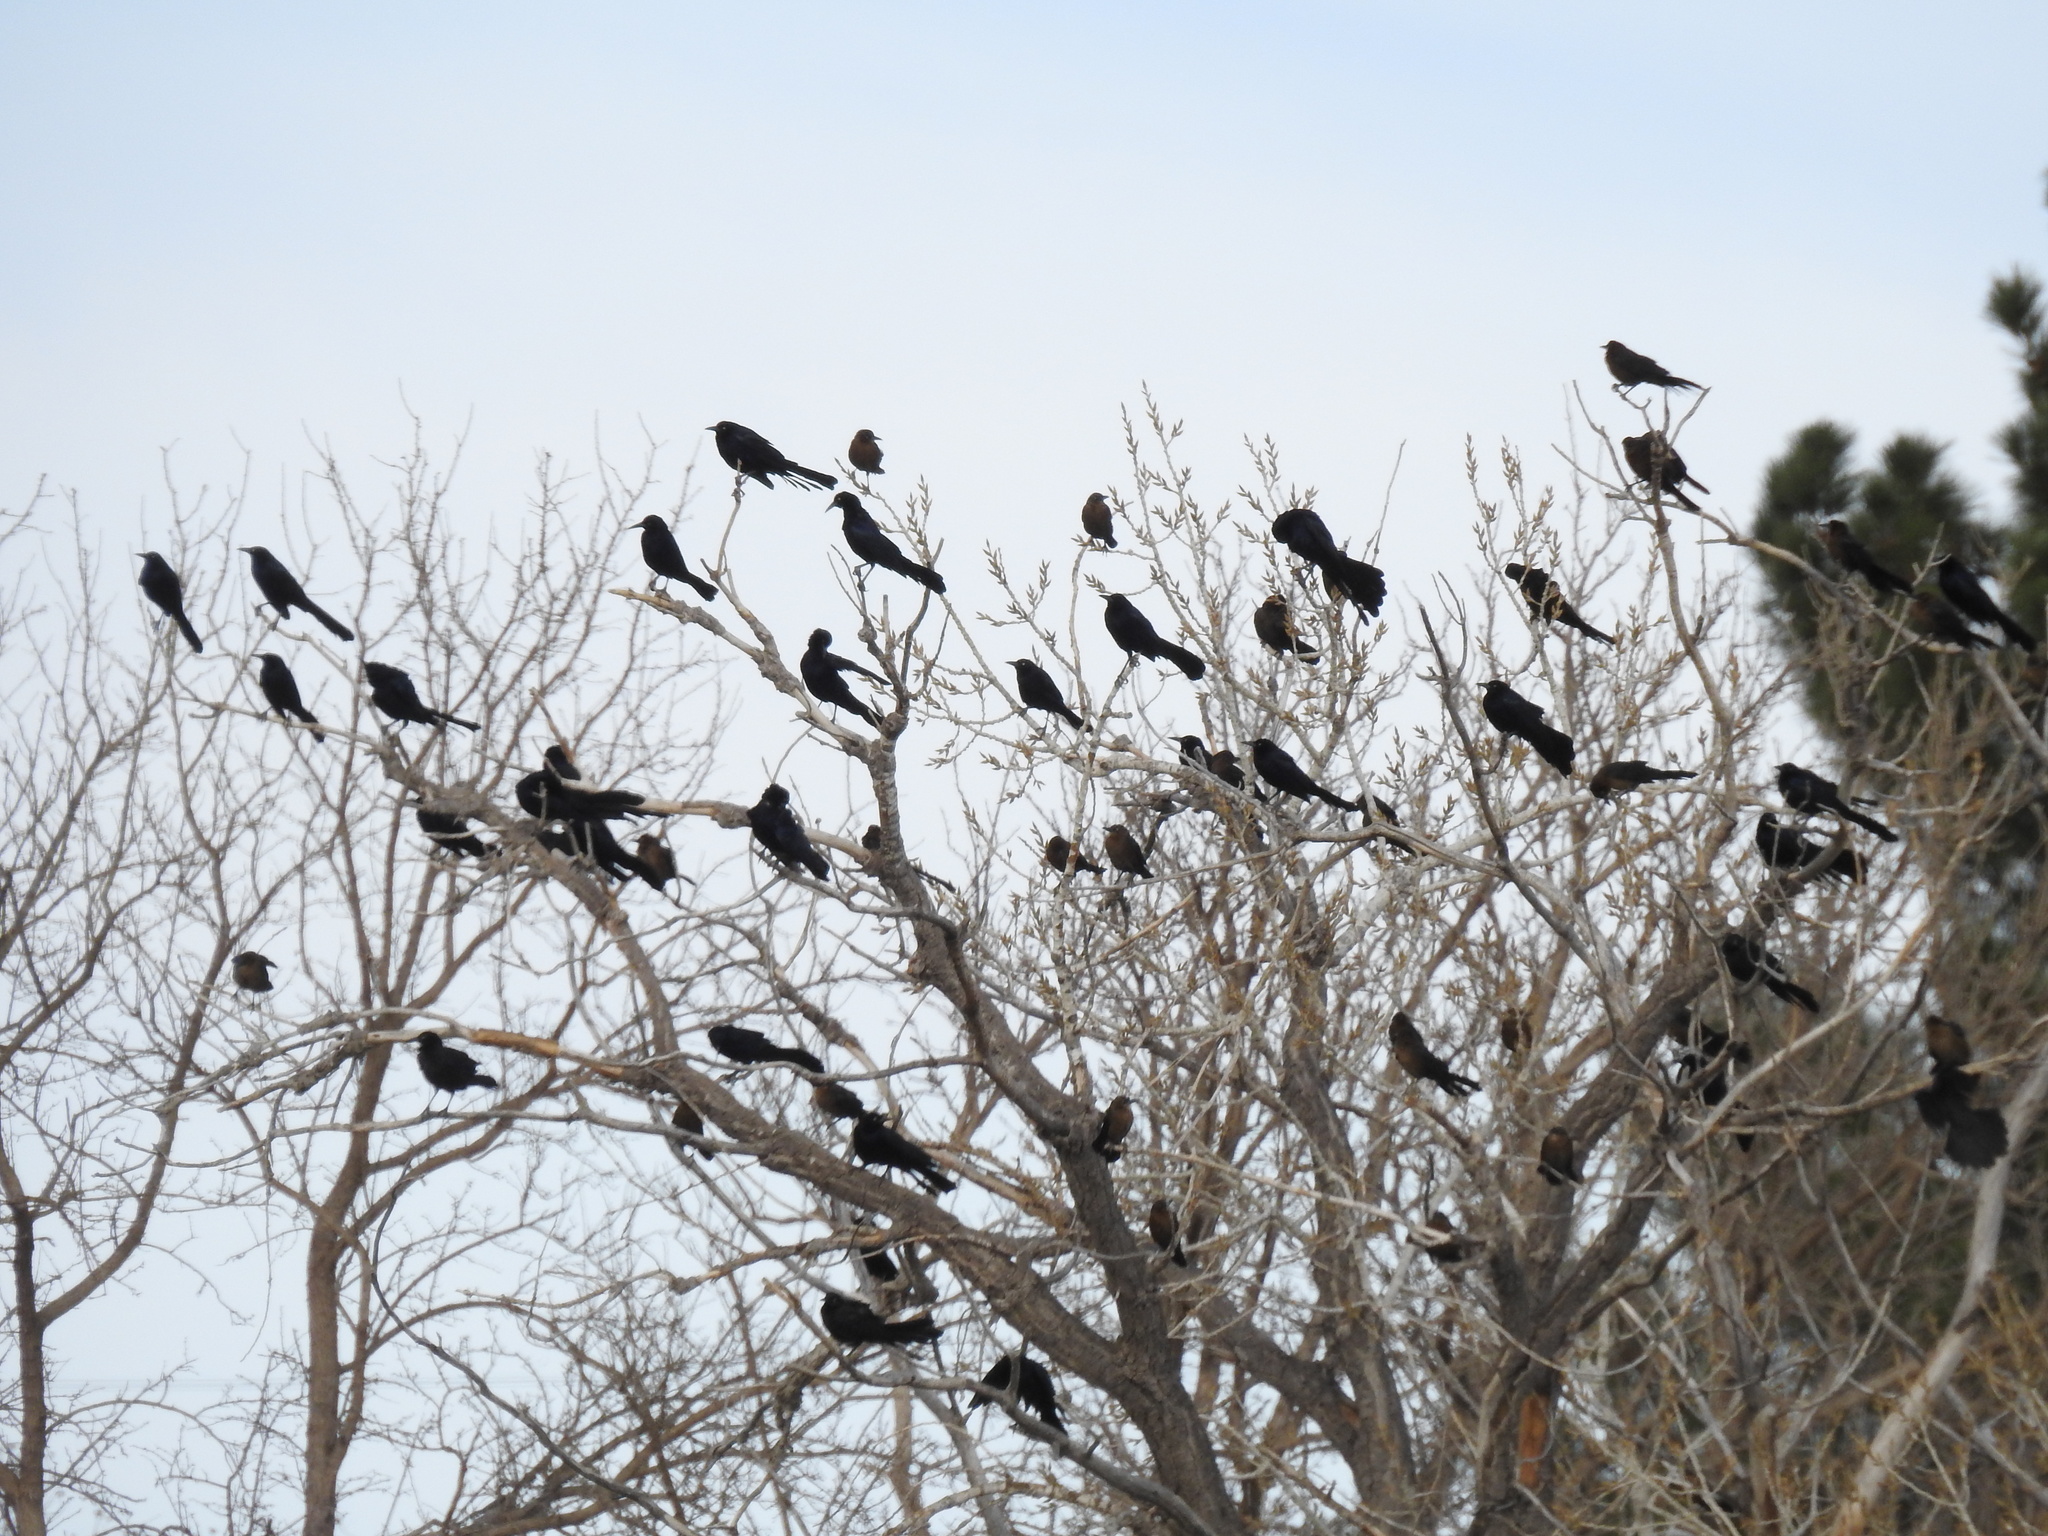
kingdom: Animalia
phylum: Chordata
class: Aves
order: Passeriformes
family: Icteridae
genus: Quiscalus
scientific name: Quiscalus mexicanus
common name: Great-tailed grackle
